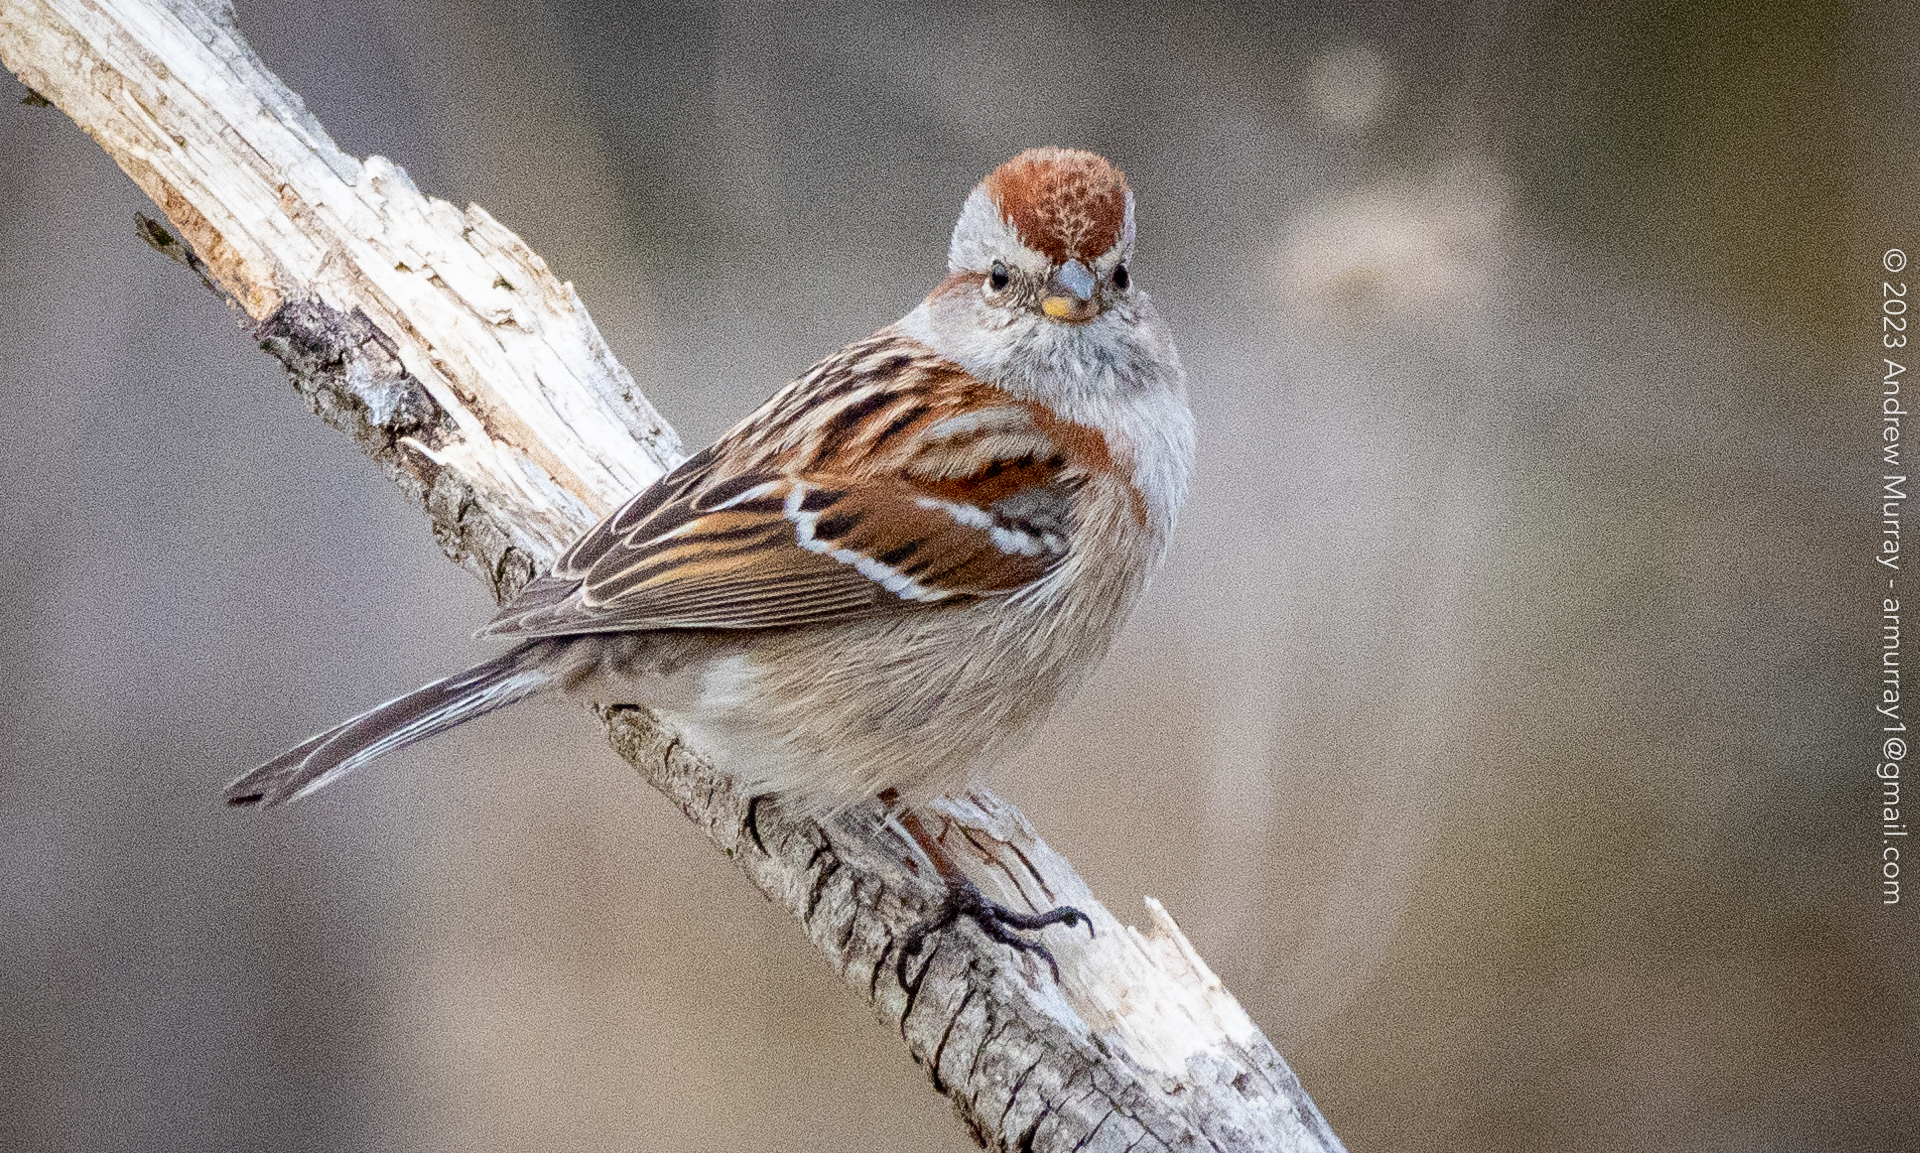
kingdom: Animalia
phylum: Chordata
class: Aves
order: Passeriformes
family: Passerellidae
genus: Spizelloides
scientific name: Spizelloides arborea
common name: American tree sparrow
